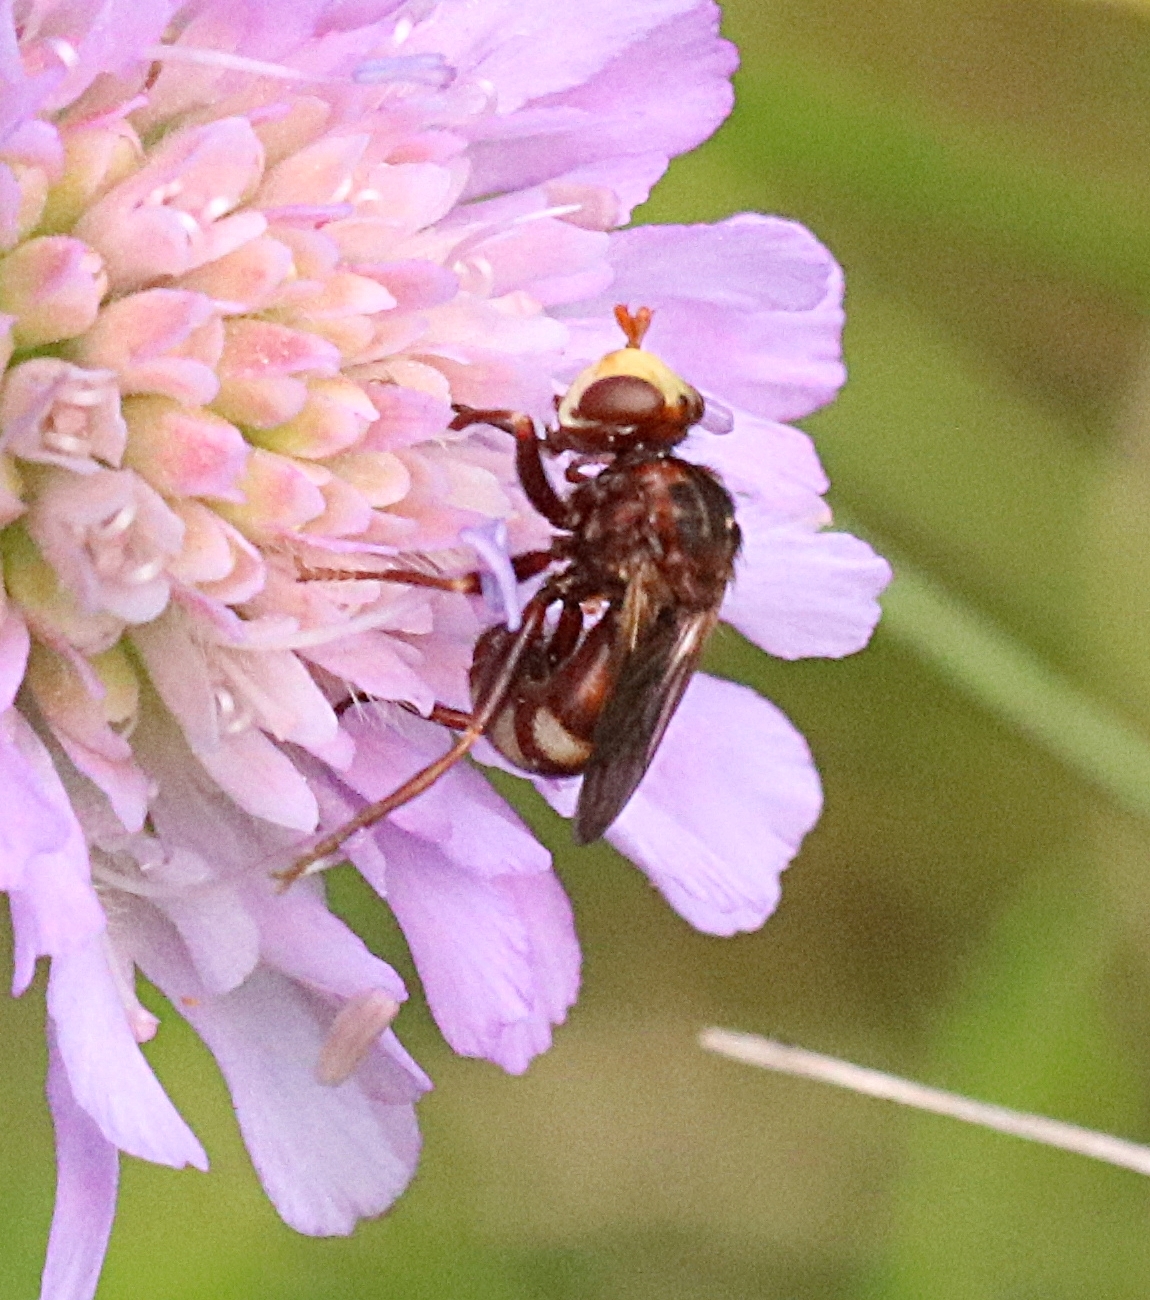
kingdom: Animalia
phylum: Arthropoda
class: Insecta
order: Hymenoptera
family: Tenthredinidae
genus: Tenthredo
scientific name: Tenthredo zonula
